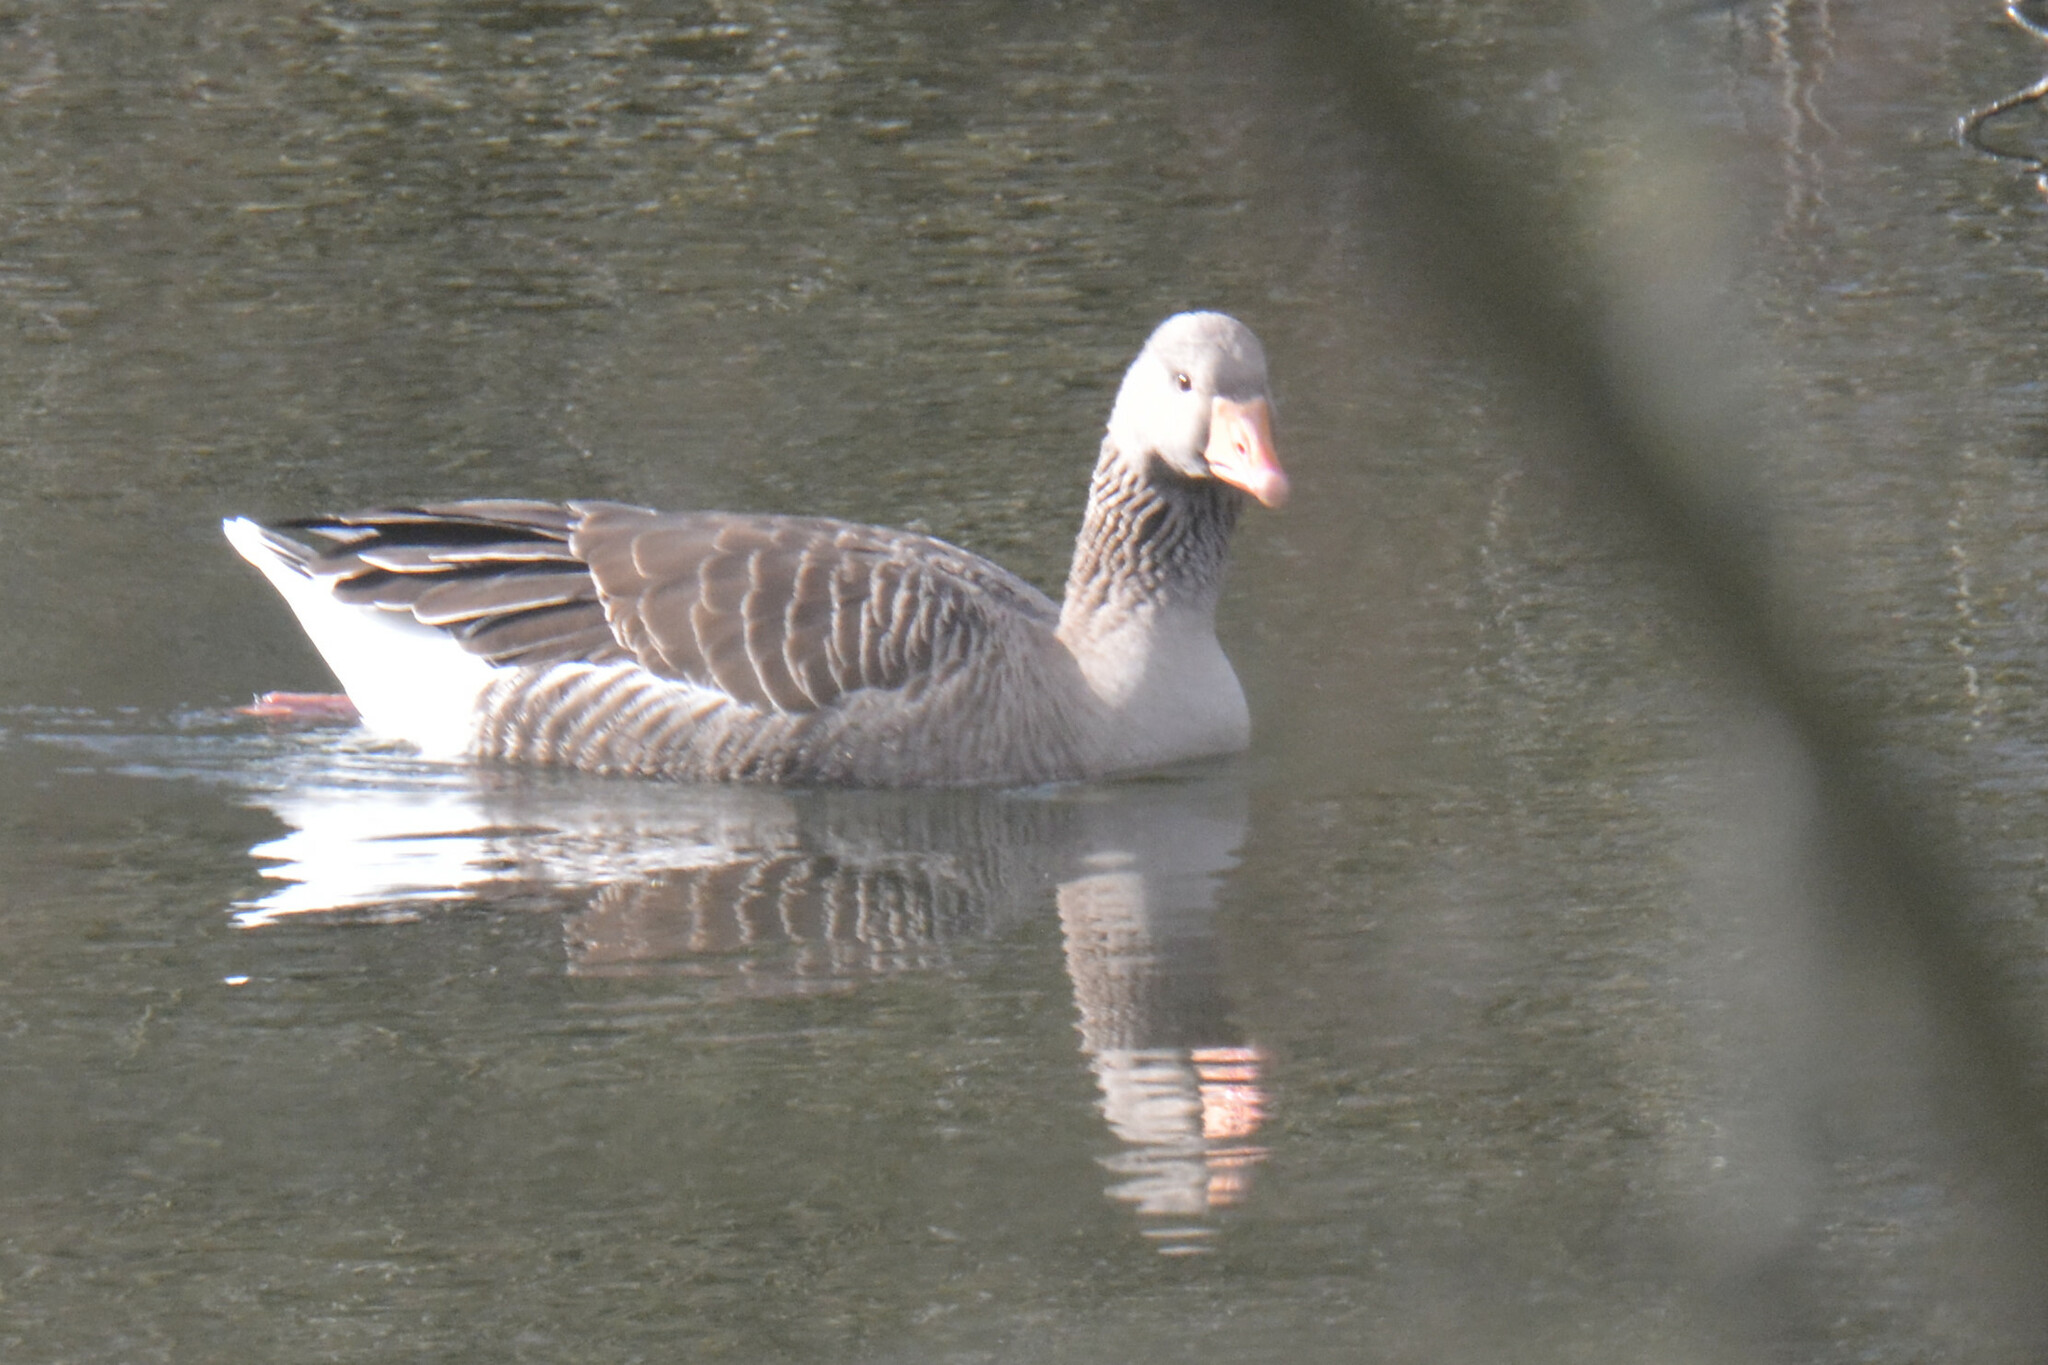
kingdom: Animalia
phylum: Chordata
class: Aves
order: Anseriformes
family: Anatidae
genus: Anser
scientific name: Anser anser
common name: Greylag goose
